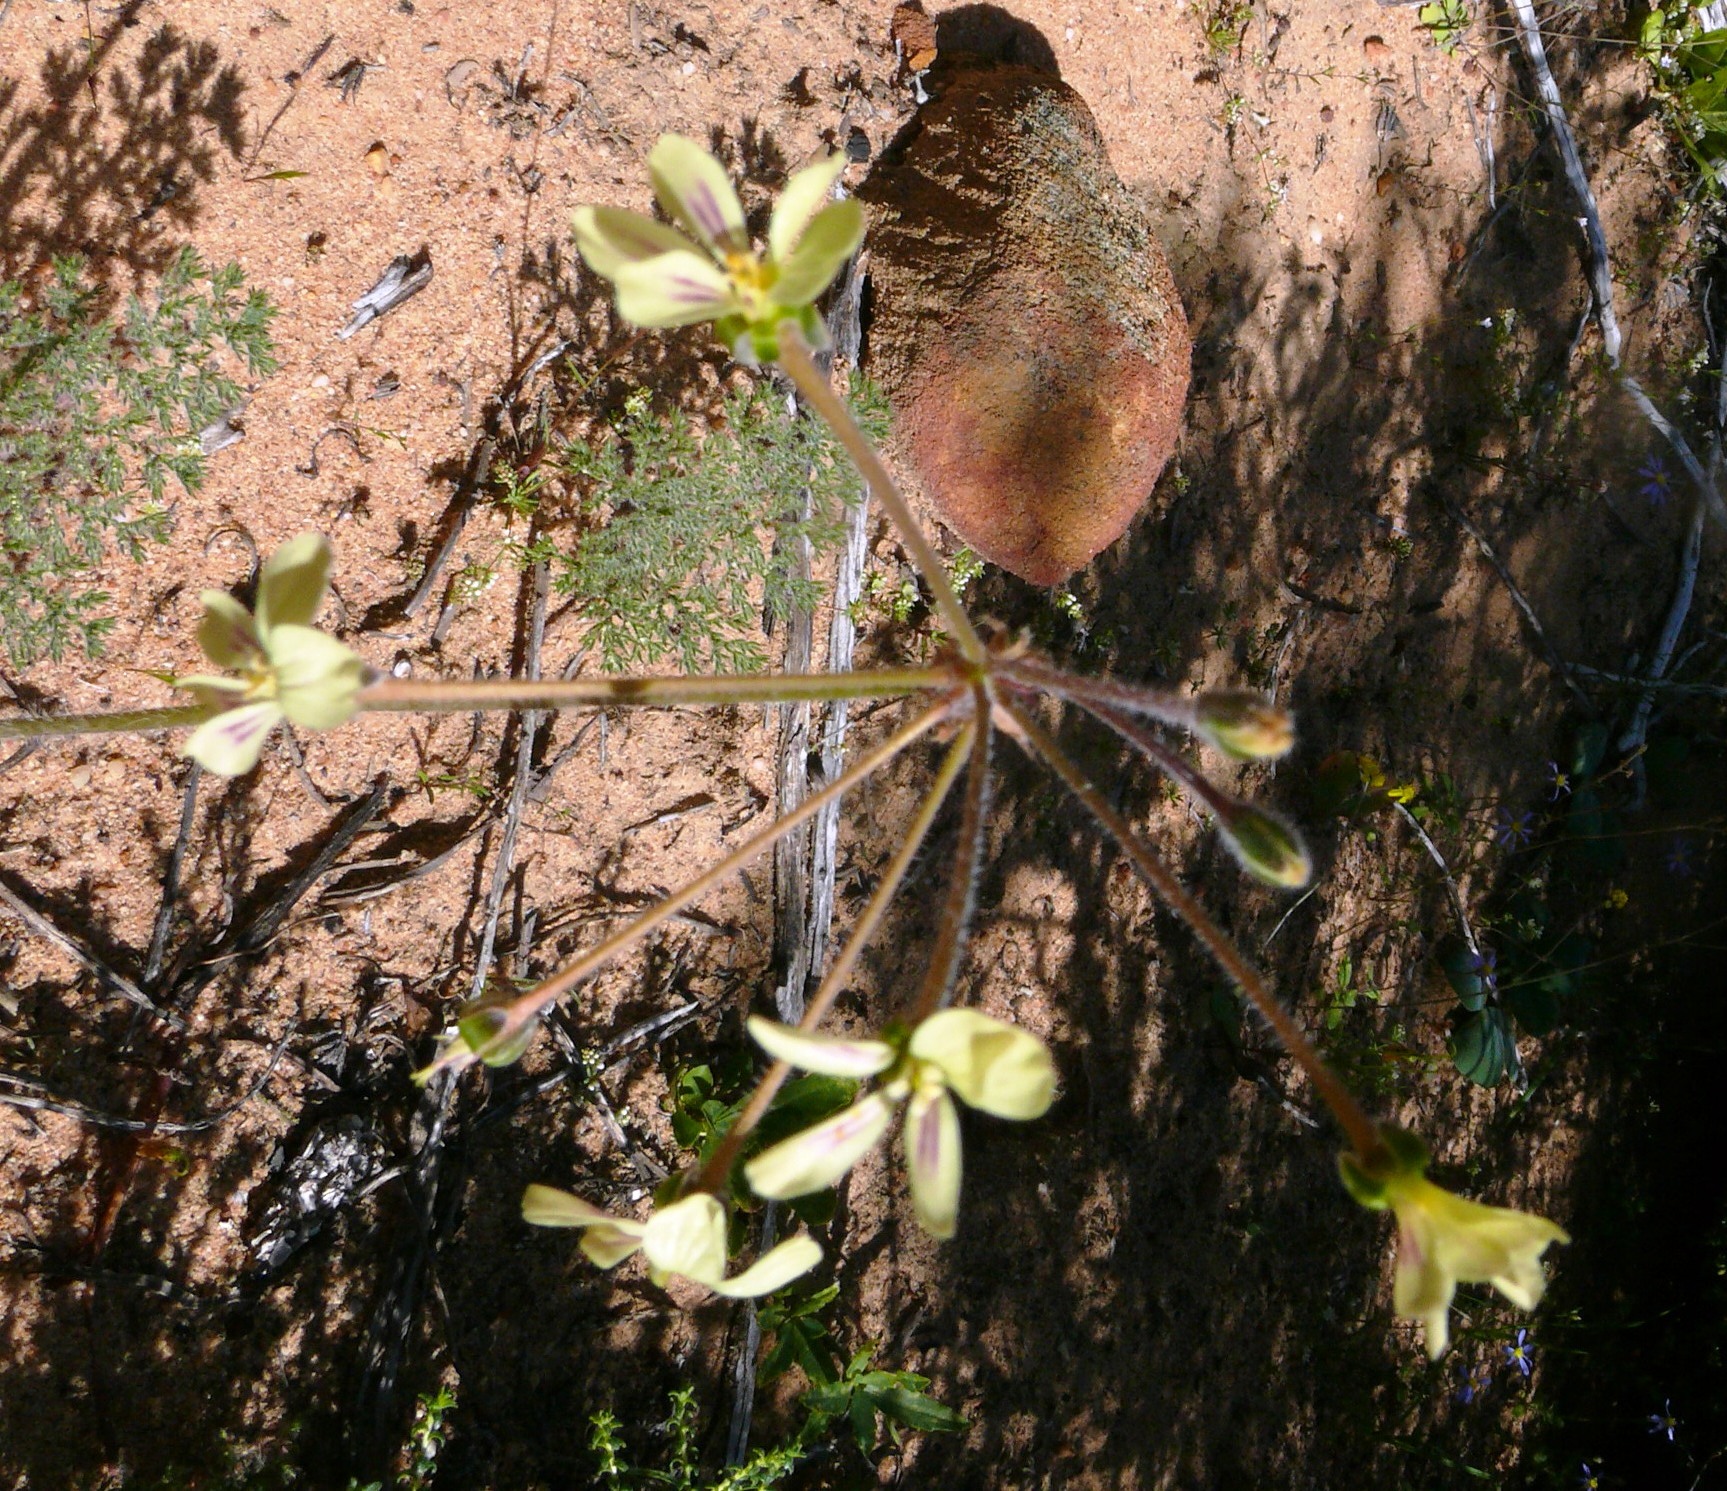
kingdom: Plantae
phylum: Tracheophyta
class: Magnoliopsida
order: Geraniales
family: Geraniaceae
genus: Pelargonium
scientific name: Pelargonium triste
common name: Night-scent pelargonium
